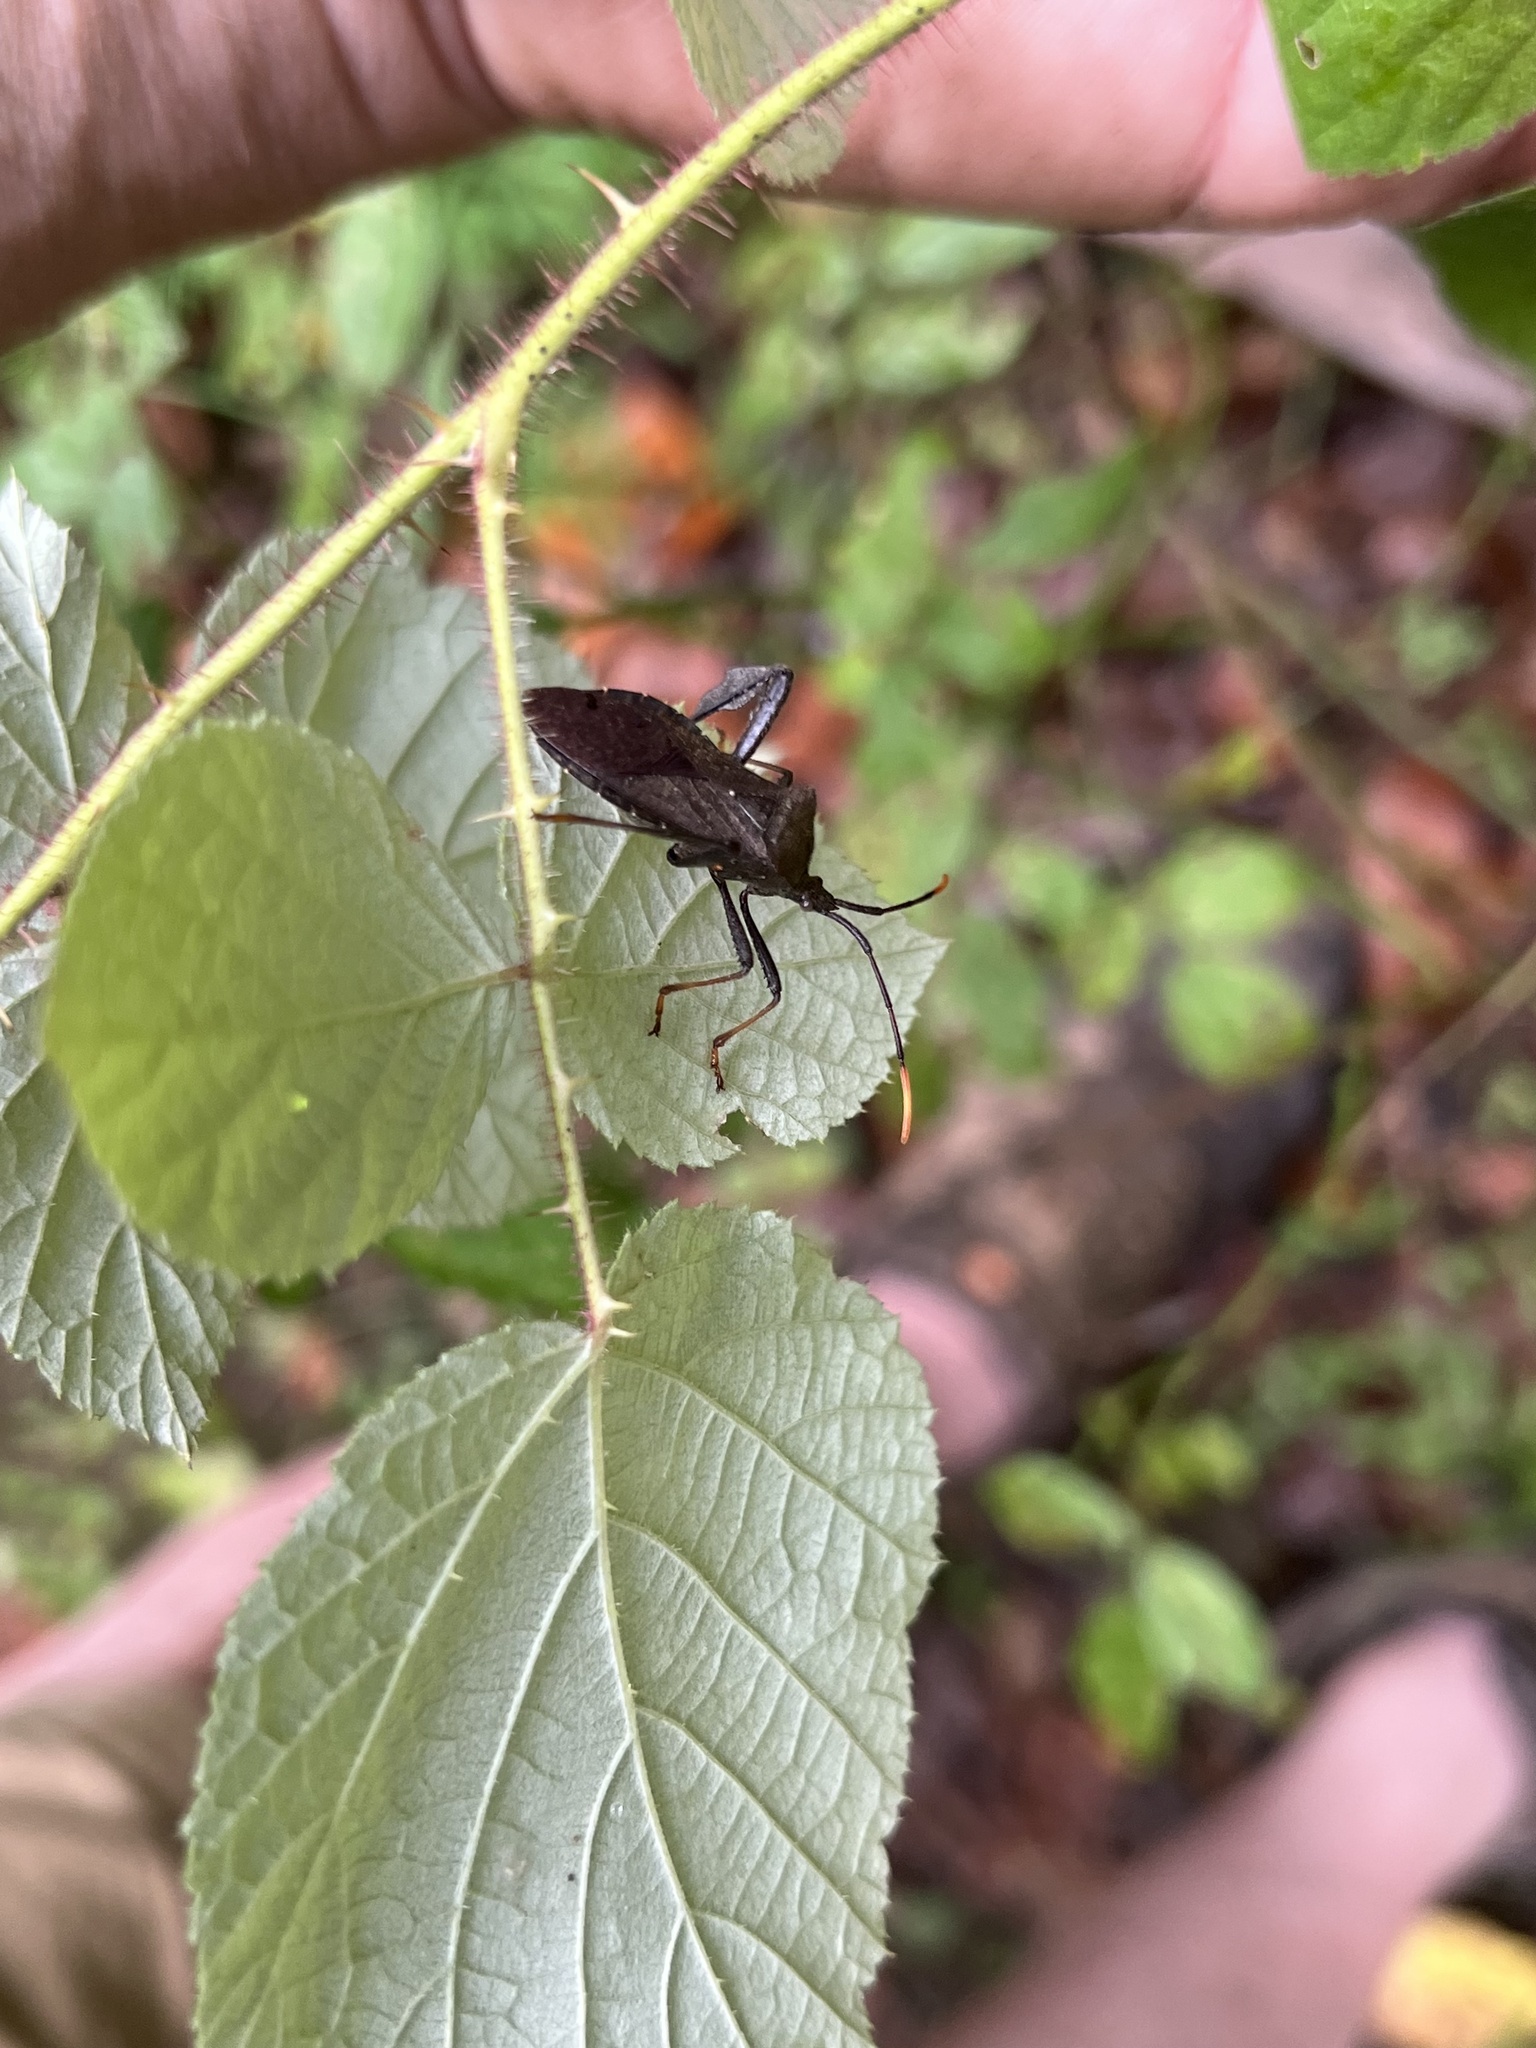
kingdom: Animalia
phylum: Arthropoda
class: Insecta
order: Hemiptera
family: Coreidae
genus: Acanthocephala
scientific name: Acanthocephala terminalis
